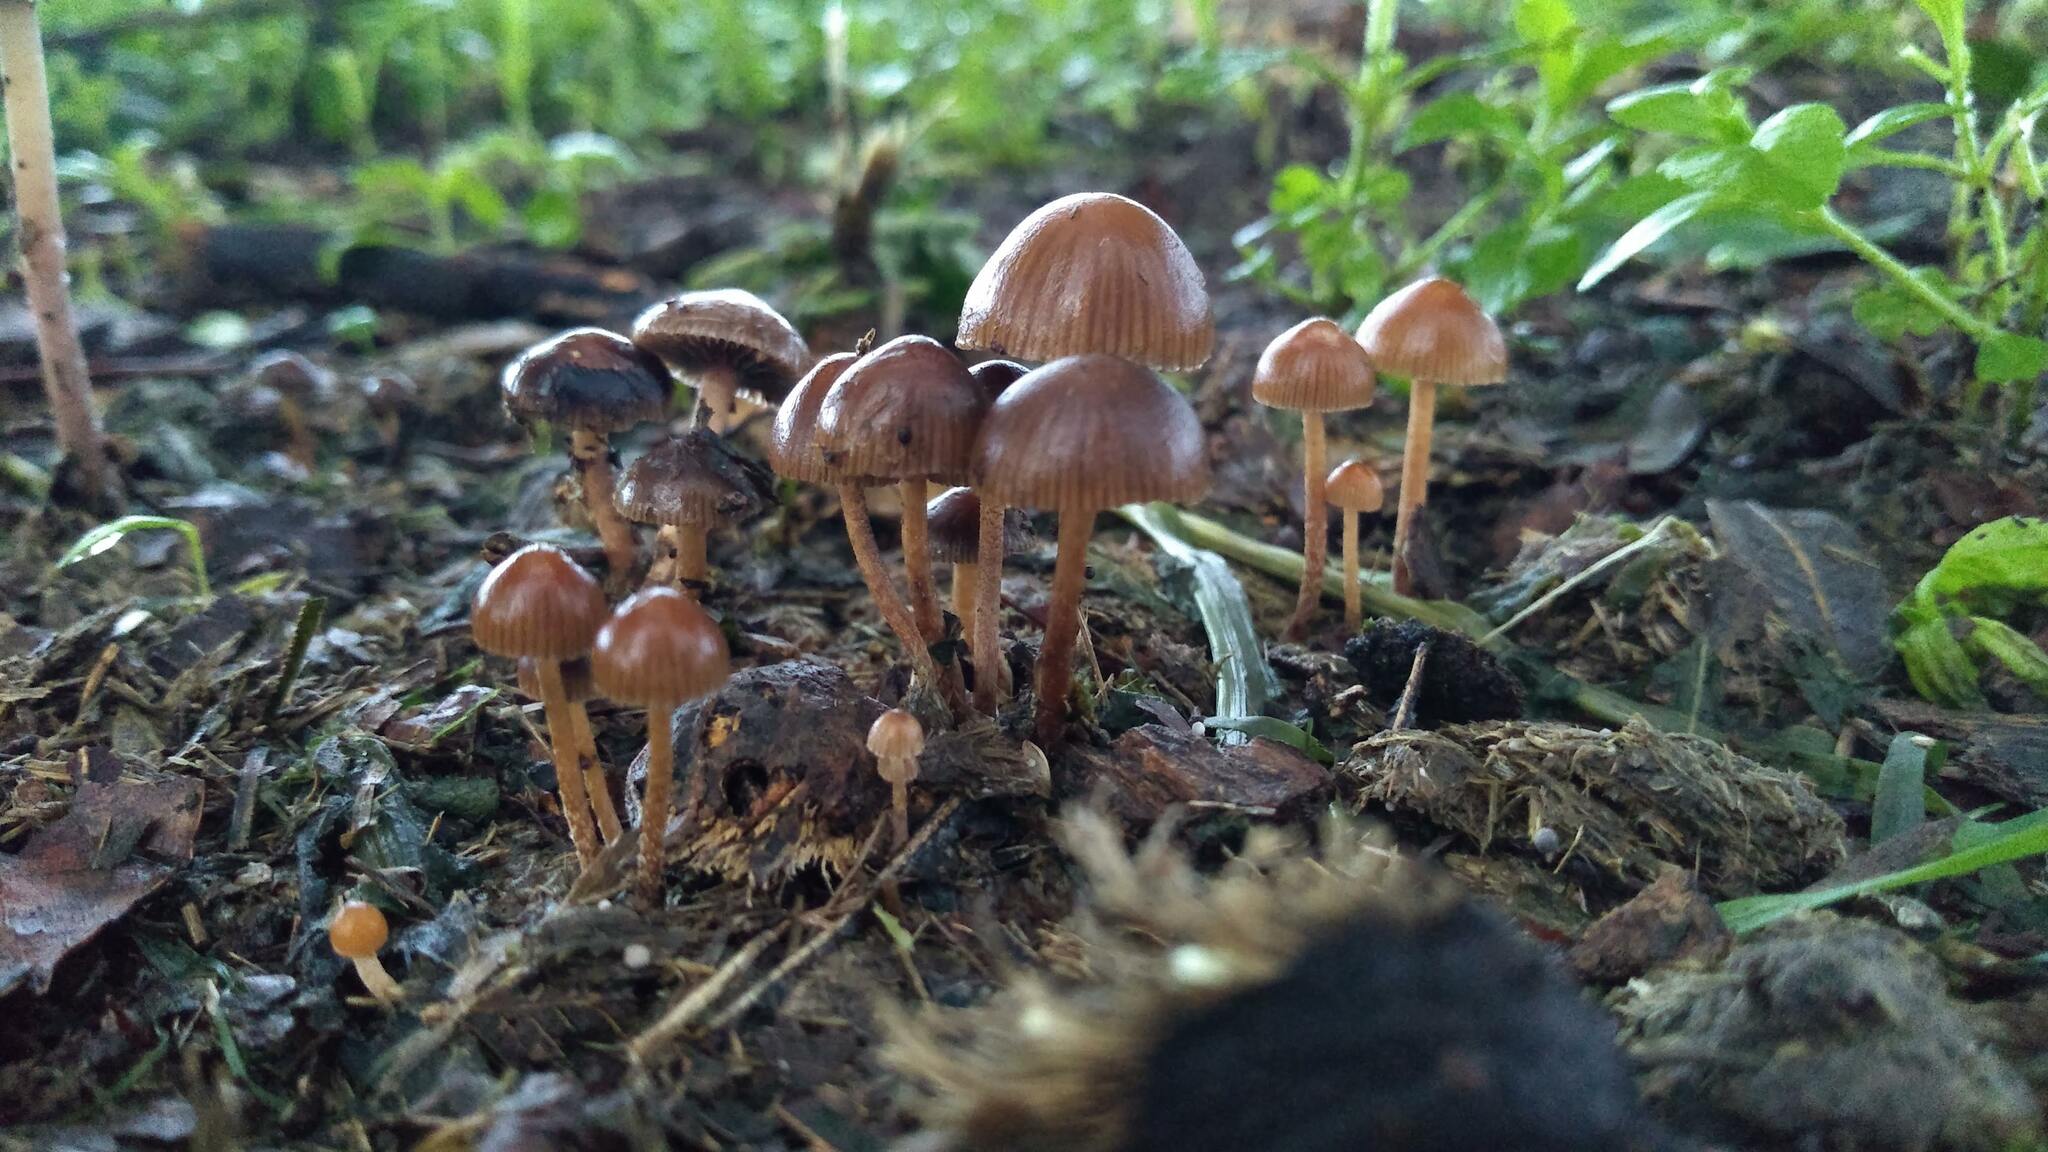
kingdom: Fungi
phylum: Basidiomycota
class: Agaricomycetes
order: Agaricales
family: Strophariaceae
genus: Deconica
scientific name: Deconica coprophila
